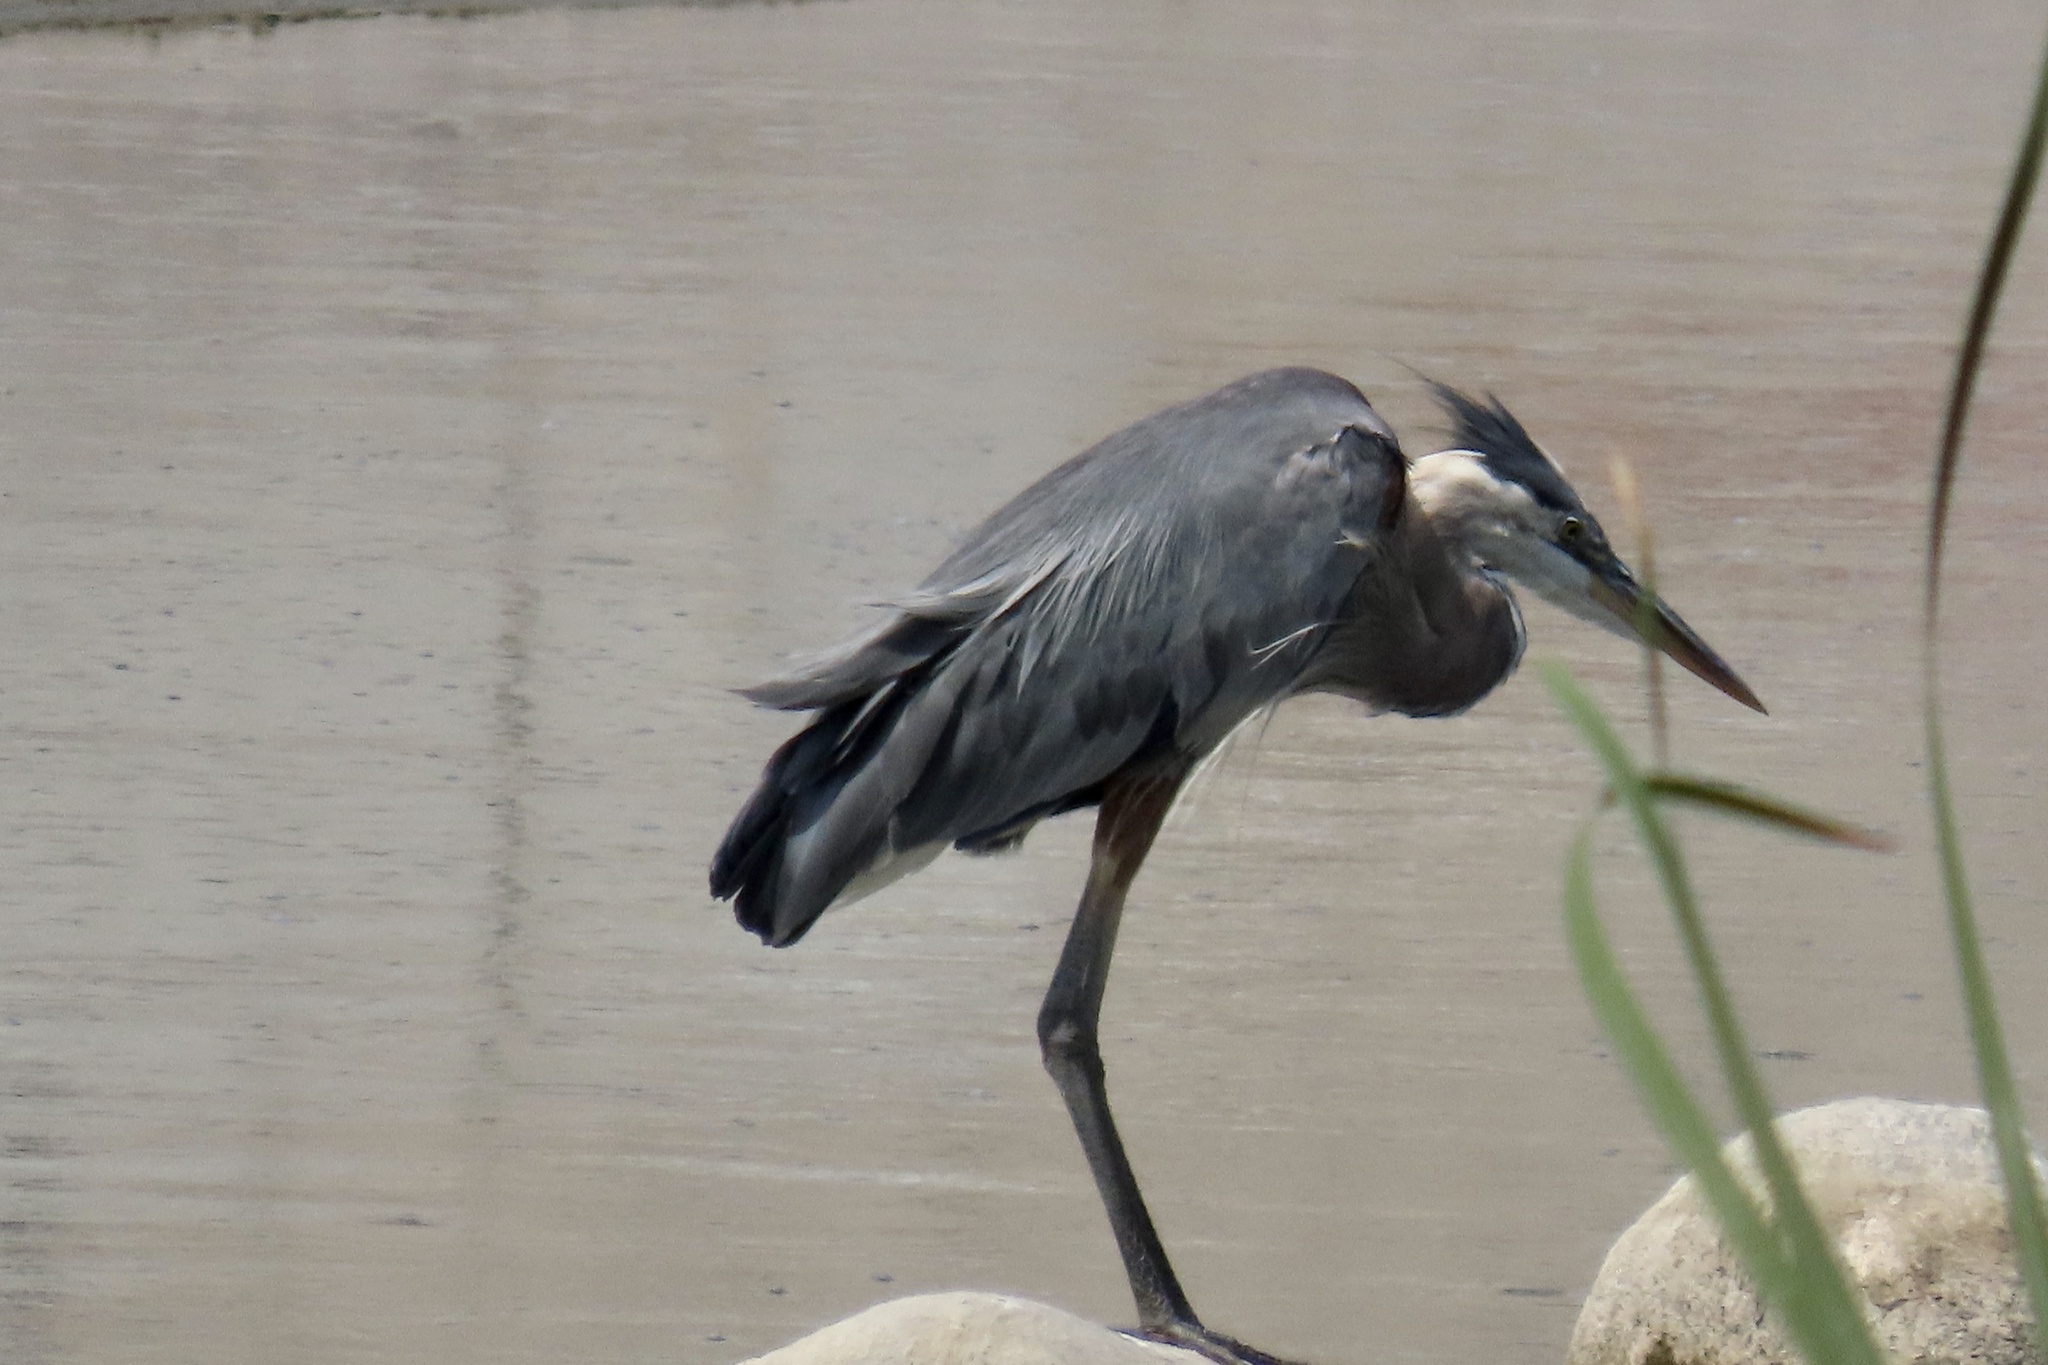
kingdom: Animalia
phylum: Chordata
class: Aves
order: Pelecaniformes
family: Ardeidae
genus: Ardea
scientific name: Ardea herodias
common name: Great blue heron
